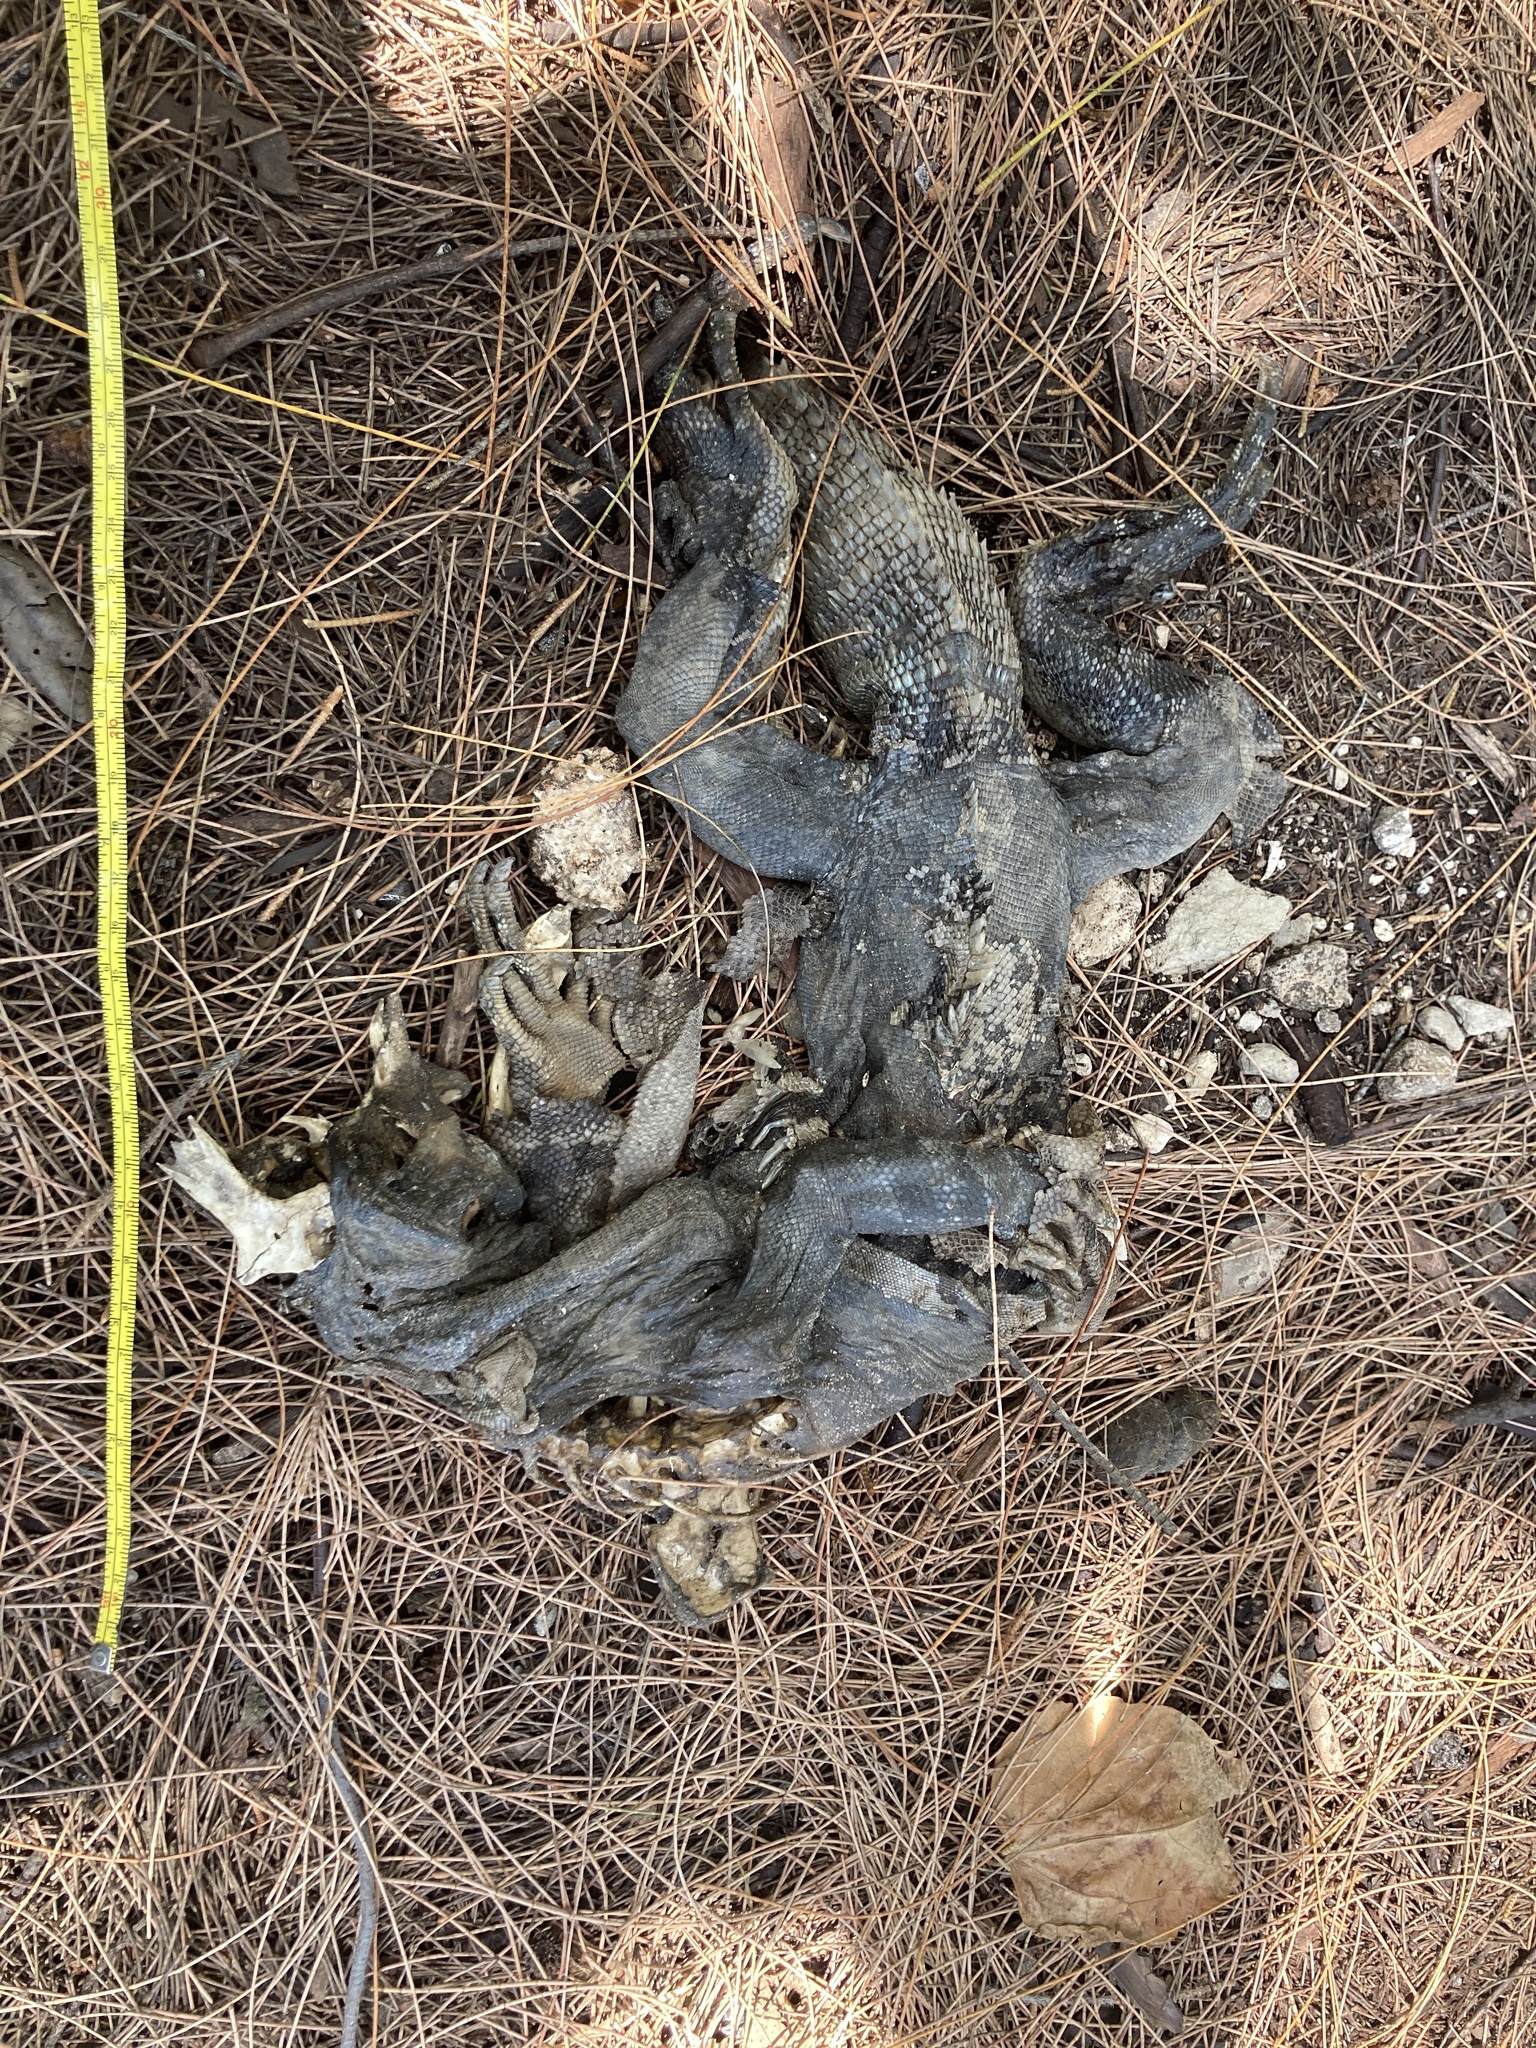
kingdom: Animalia
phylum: Chordata
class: Squamata
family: Iguanidae
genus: Ctenosaura
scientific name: Ctenosaura similis
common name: Black spiny-tailed iguana
